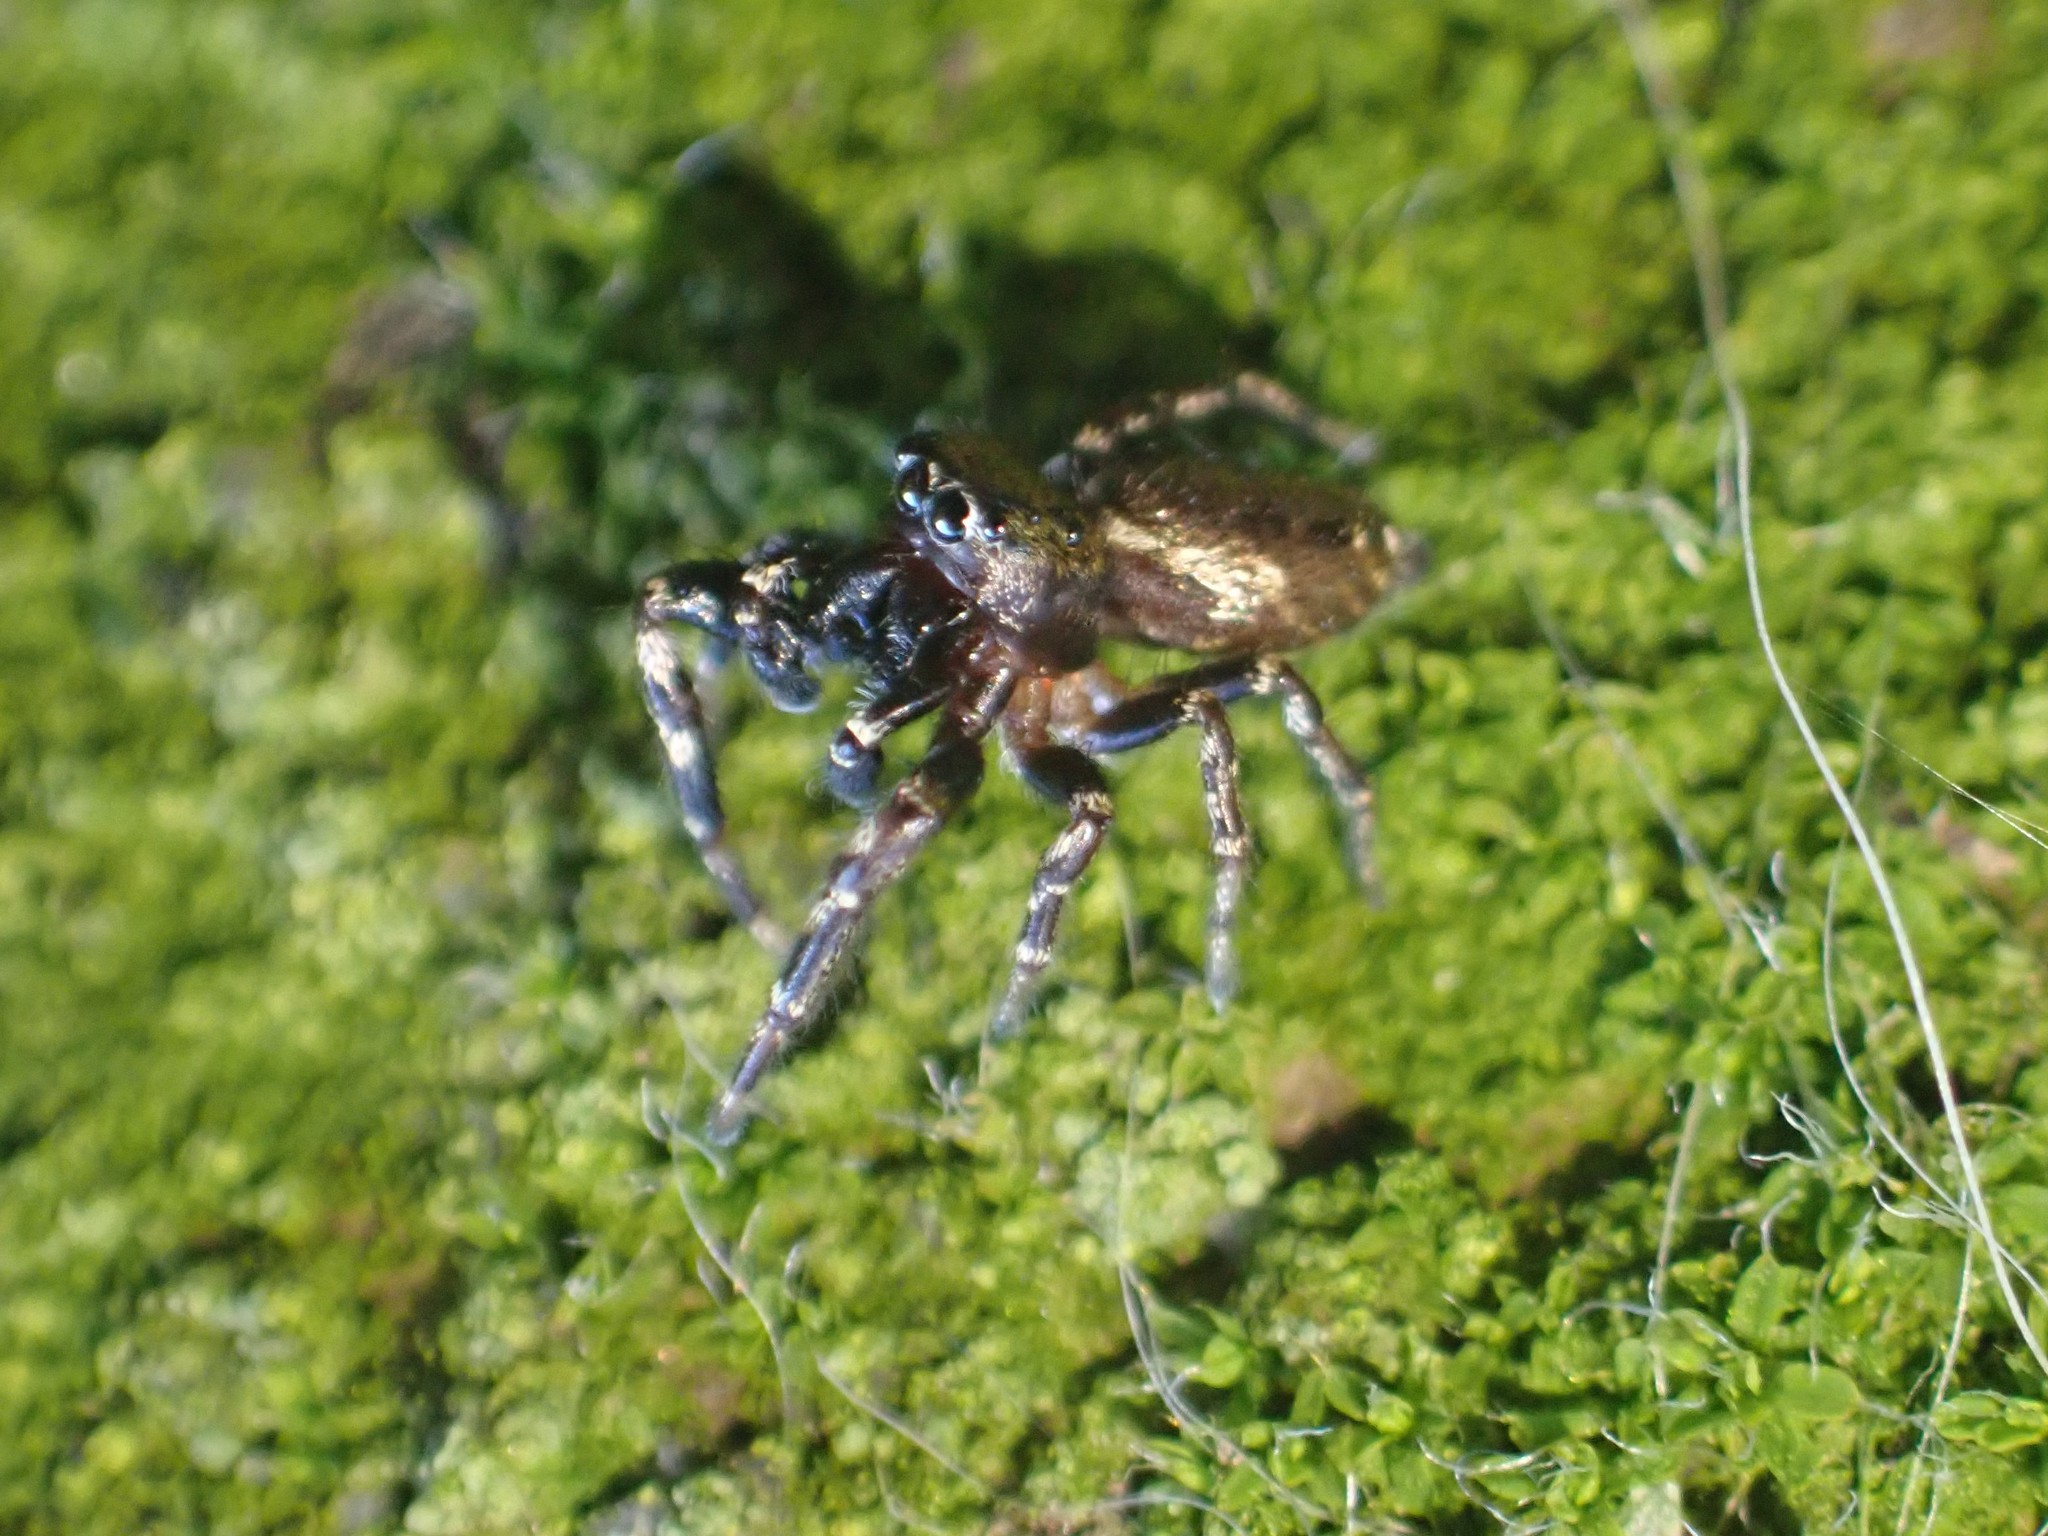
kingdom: Animalia
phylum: Arthropoda
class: Arachnida
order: Araneae
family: Salticidae
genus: Pelegrina
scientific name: Pelegrina aeneola
